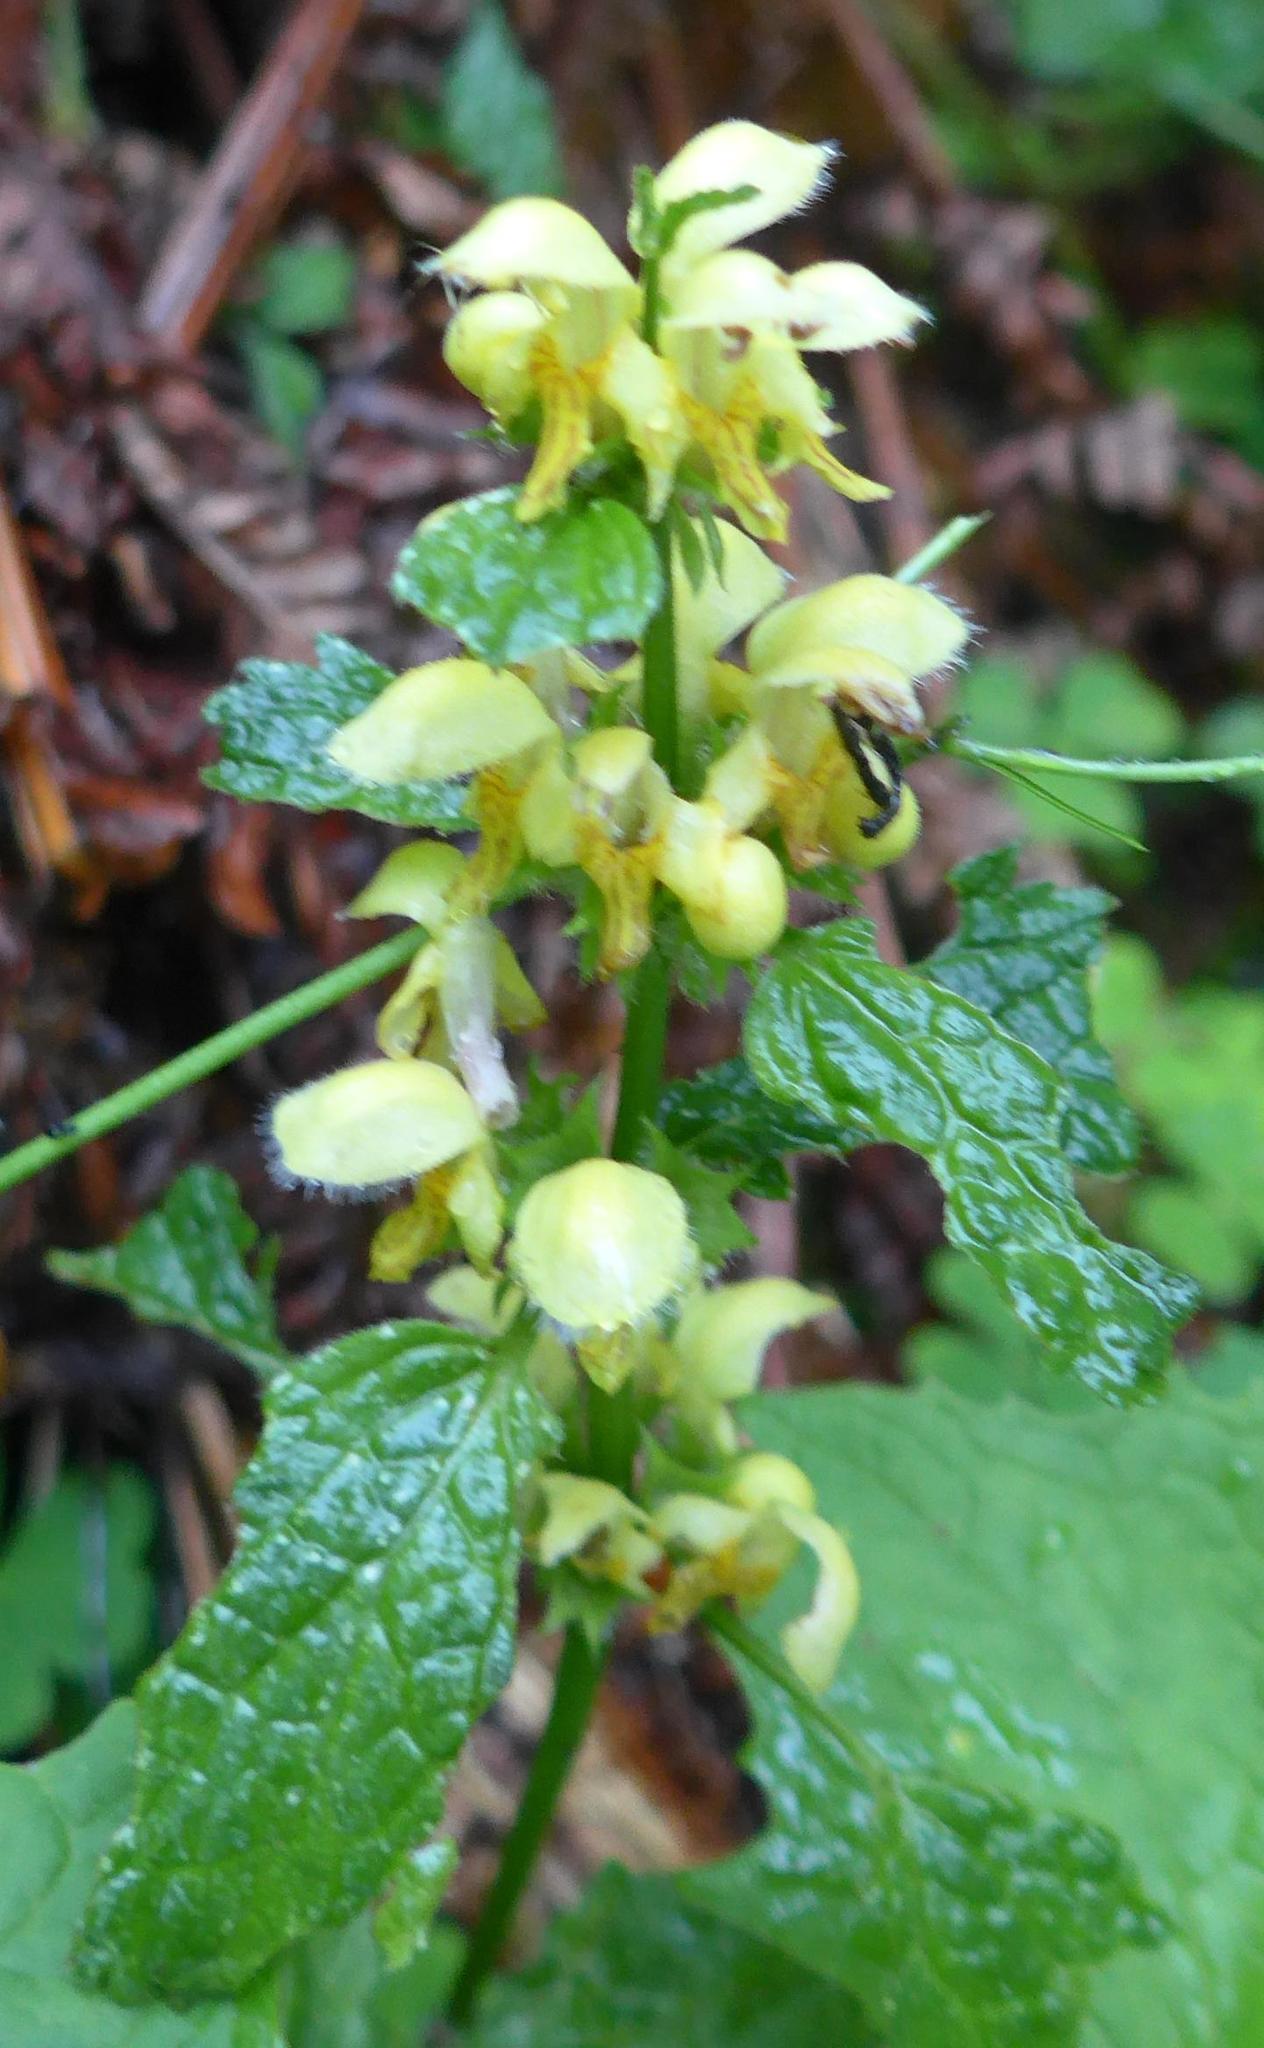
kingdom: Plantae
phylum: Tracheophyta
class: Magnoliopsida
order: Lamiales
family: Lamiaceae
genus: Lamium
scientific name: Lamium galeobdolon
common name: Yellow archangel
